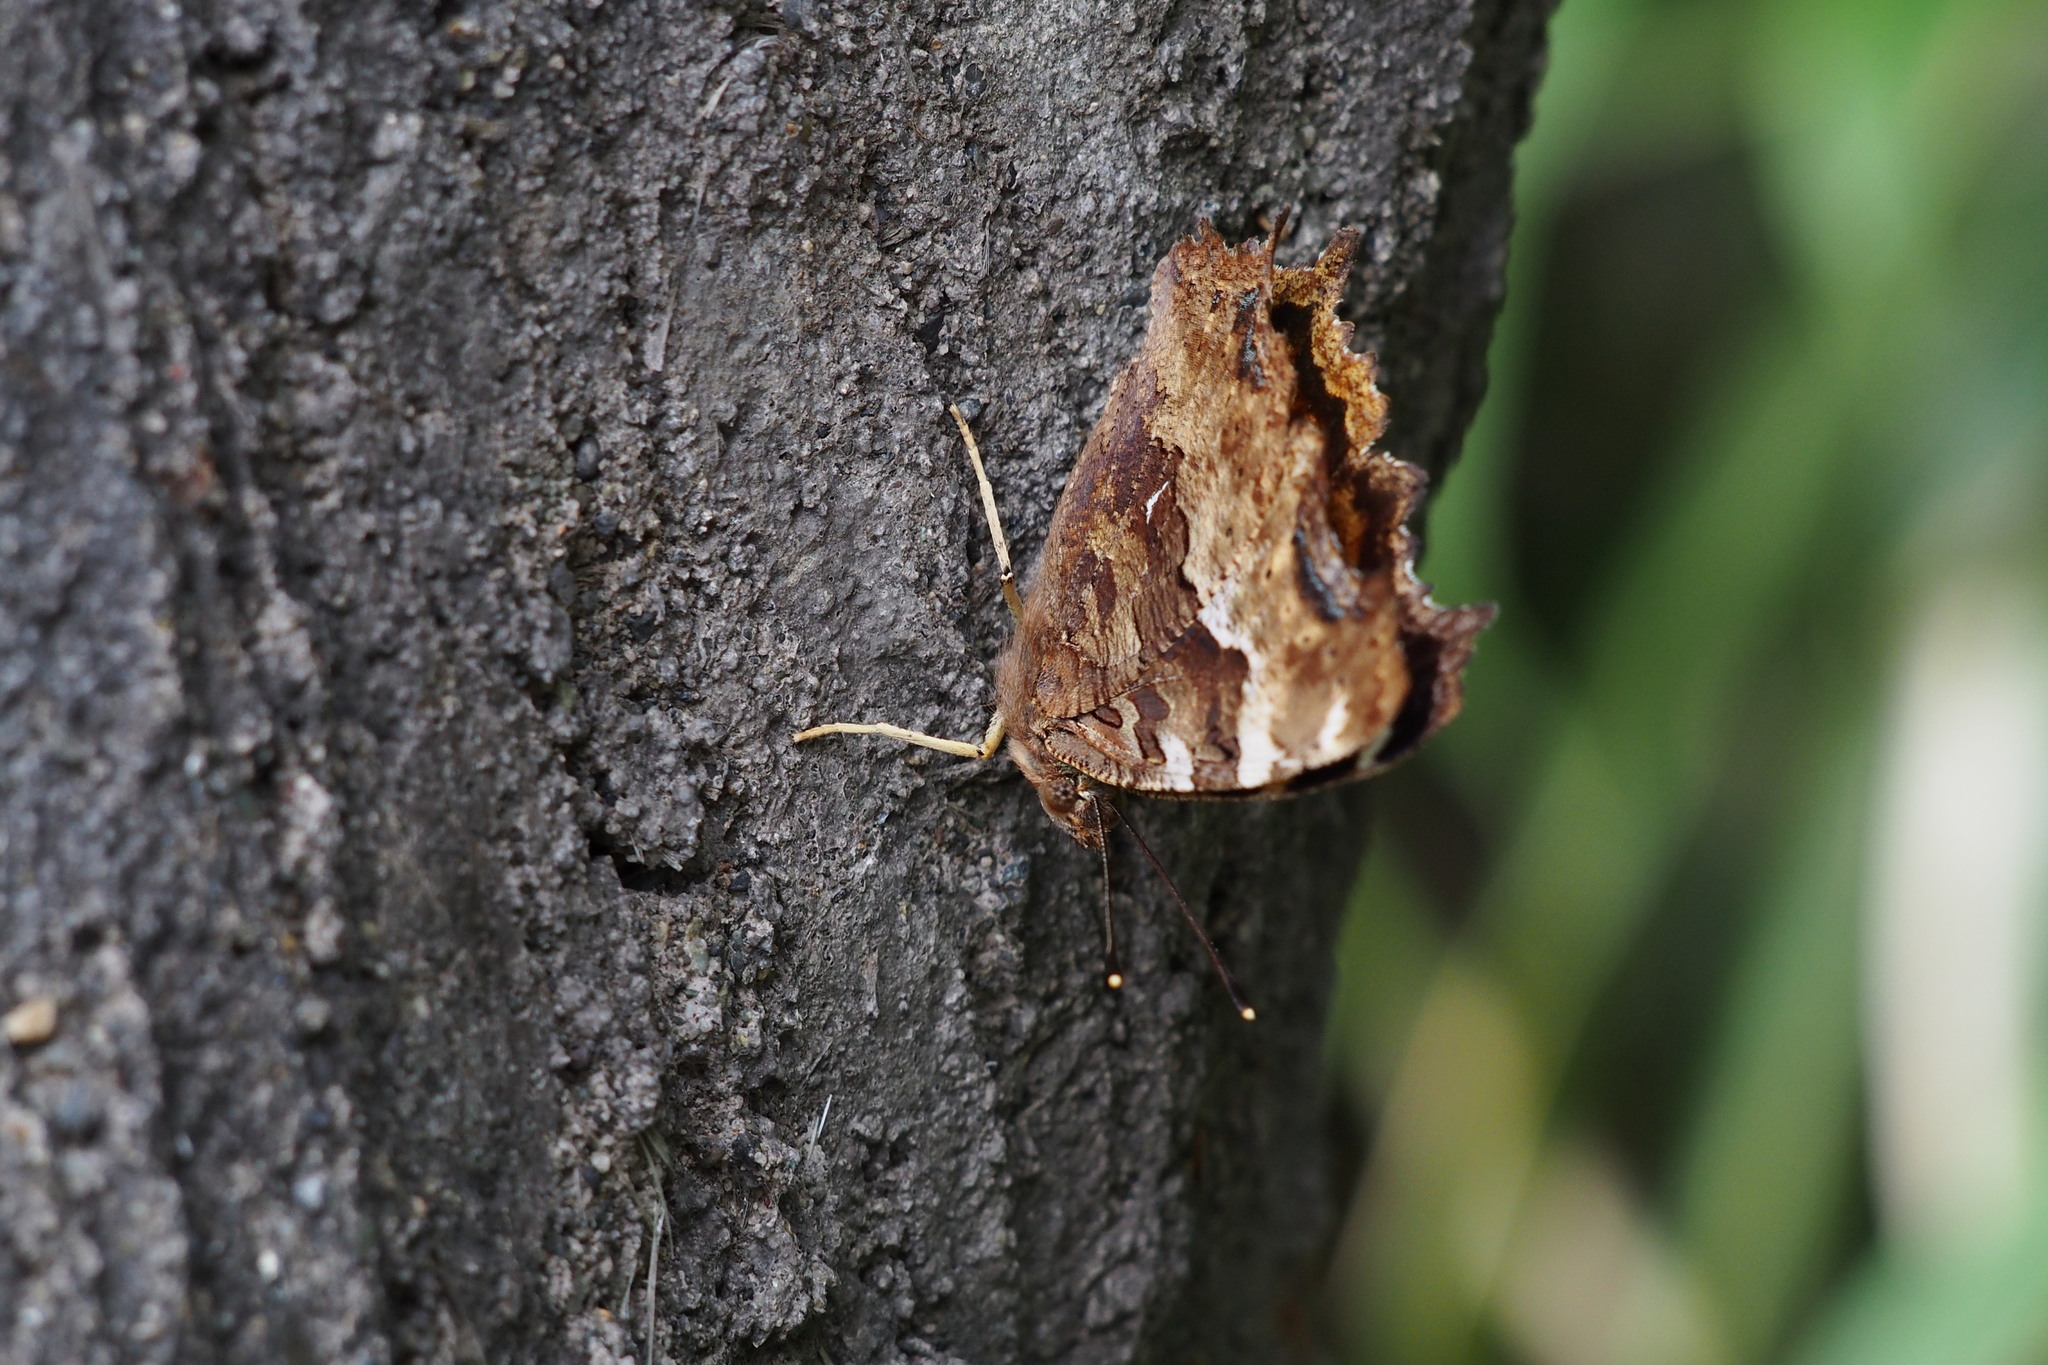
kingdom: Animalia
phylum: Arthropoda
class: Insecta
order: Lepidoptera
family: Nymphalidae
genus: Polygonia
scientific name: Polygonia vaualbum
